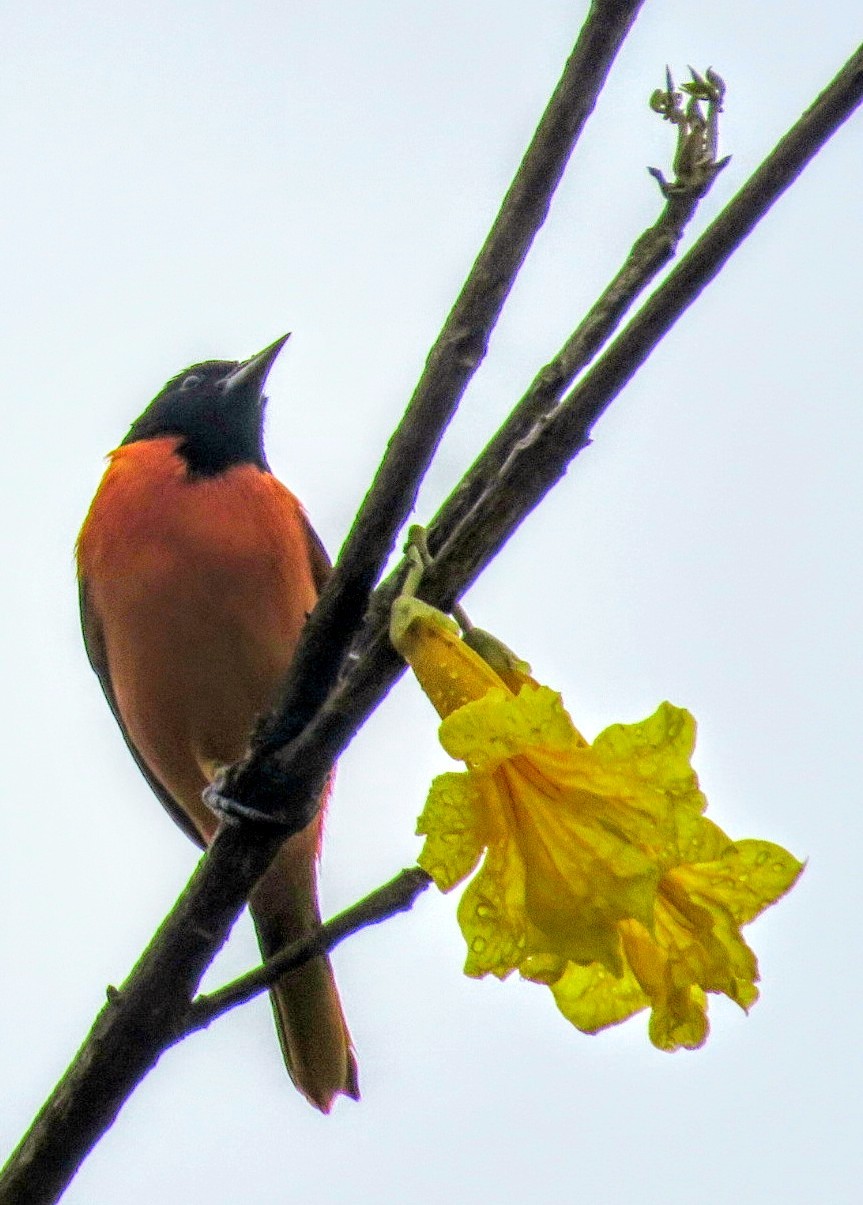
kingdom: Animalia
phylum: Chordata
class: Aves
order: Passeriformes
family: Icteridae
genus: Icterus
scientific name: Icterus galbula
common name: Baltimore oriole
